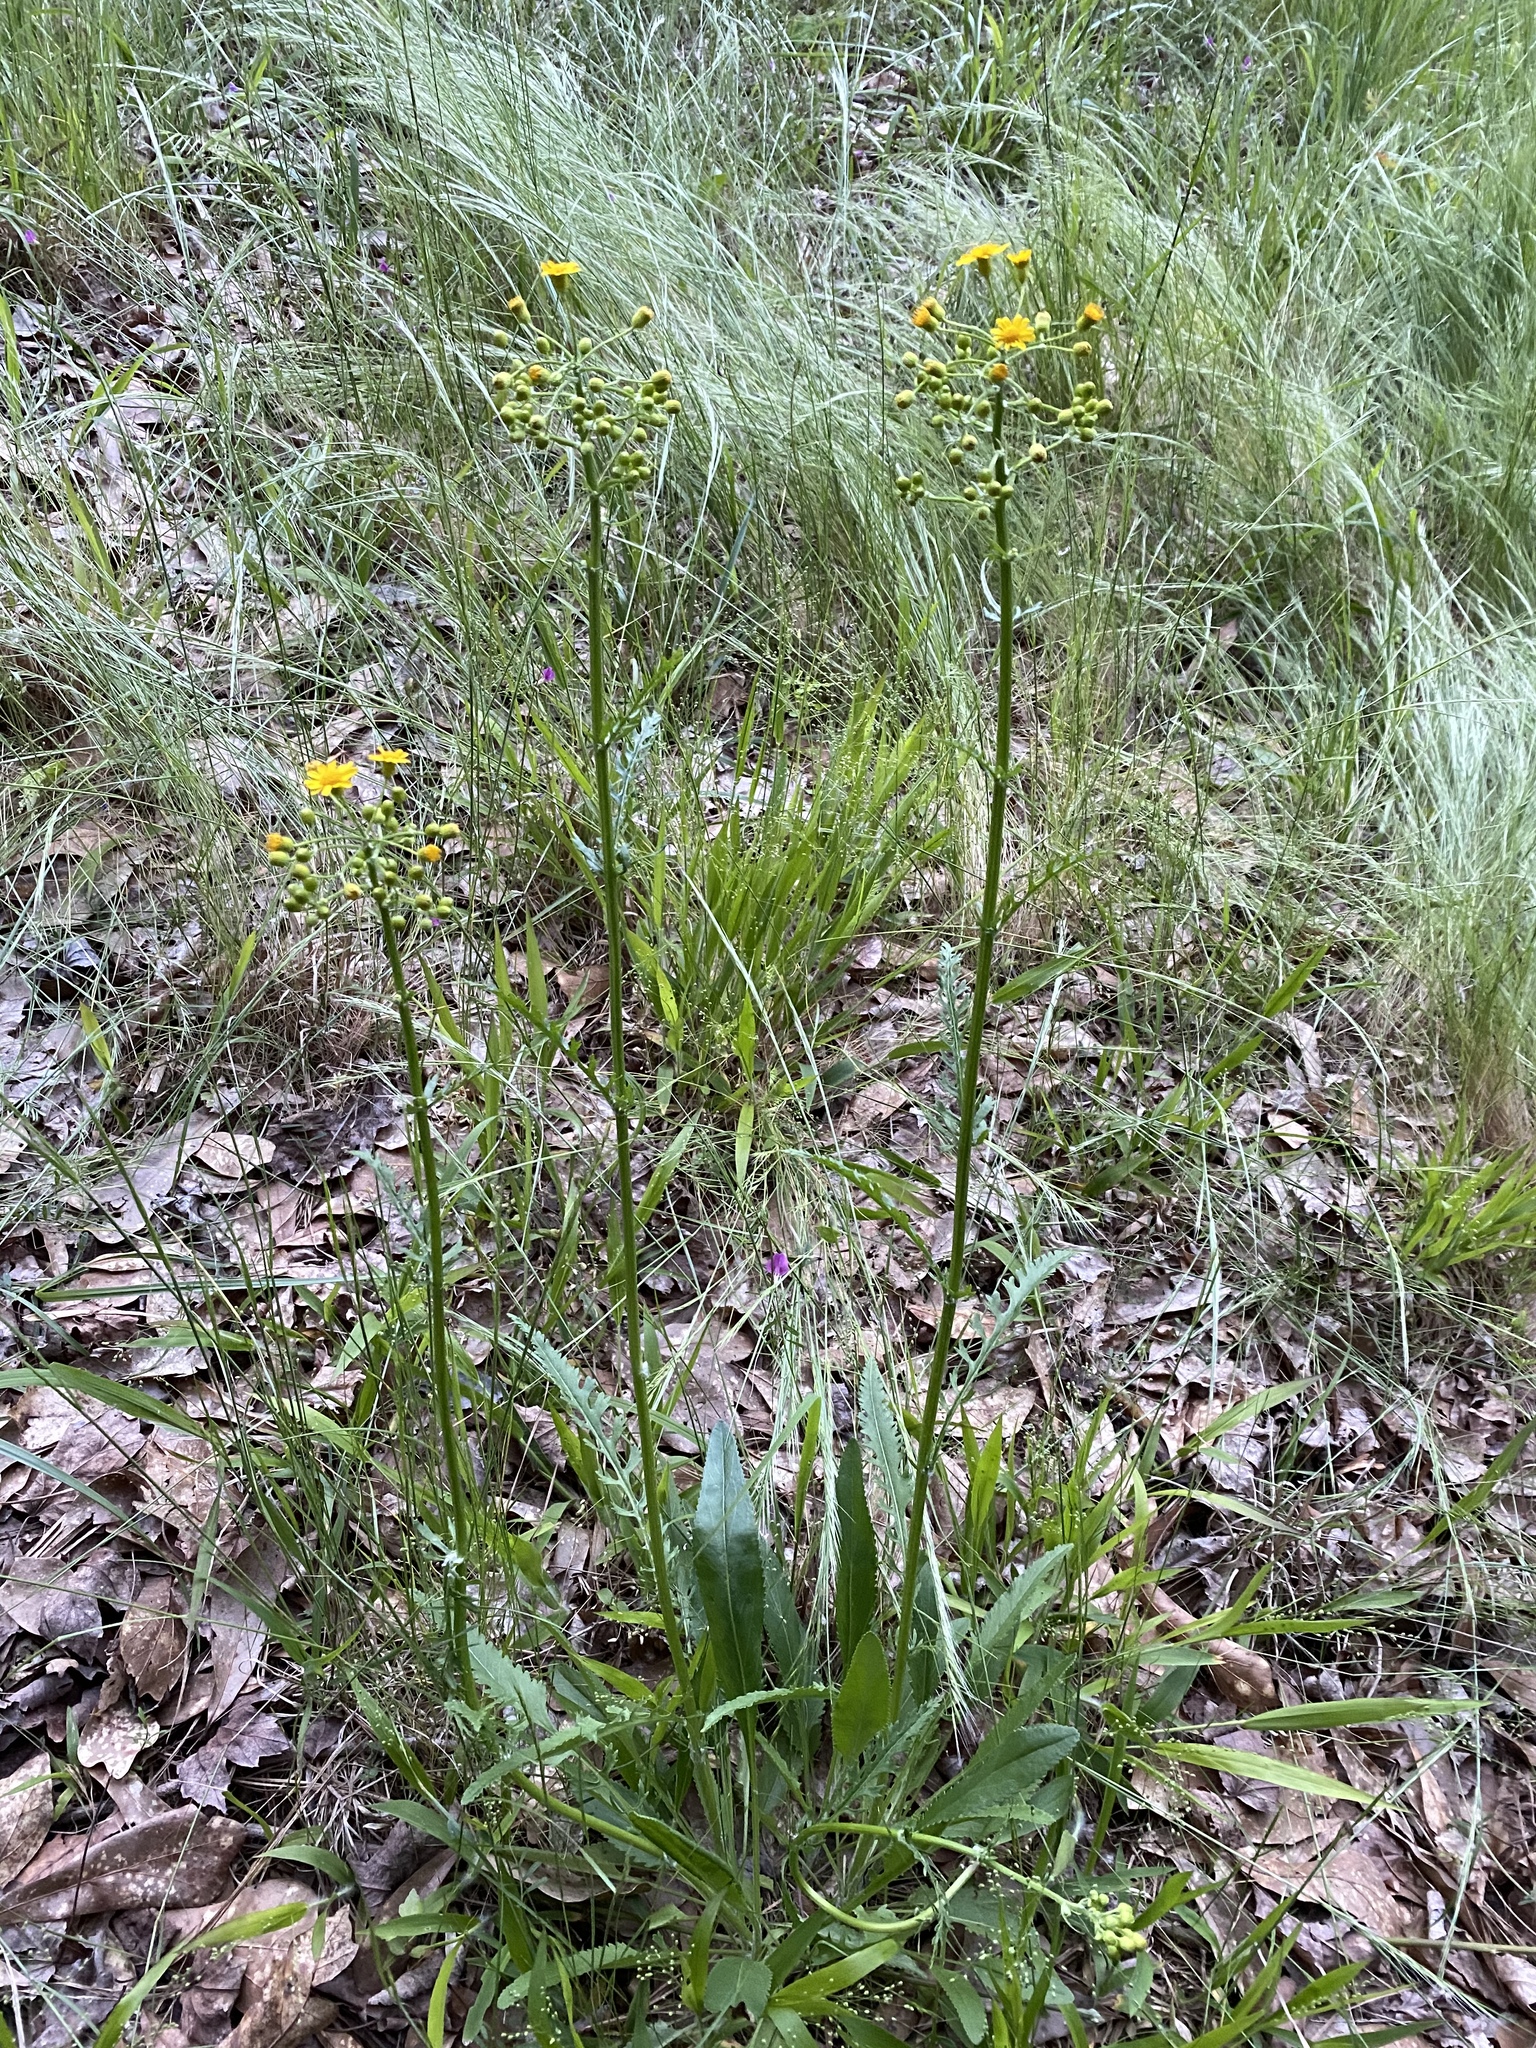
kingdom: Plantae
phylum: Tracheophyta
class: Magnoliopsida
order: Asterales
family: Asteraceae
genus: Packera
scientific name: Packera anonyma
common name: Small ragwort
